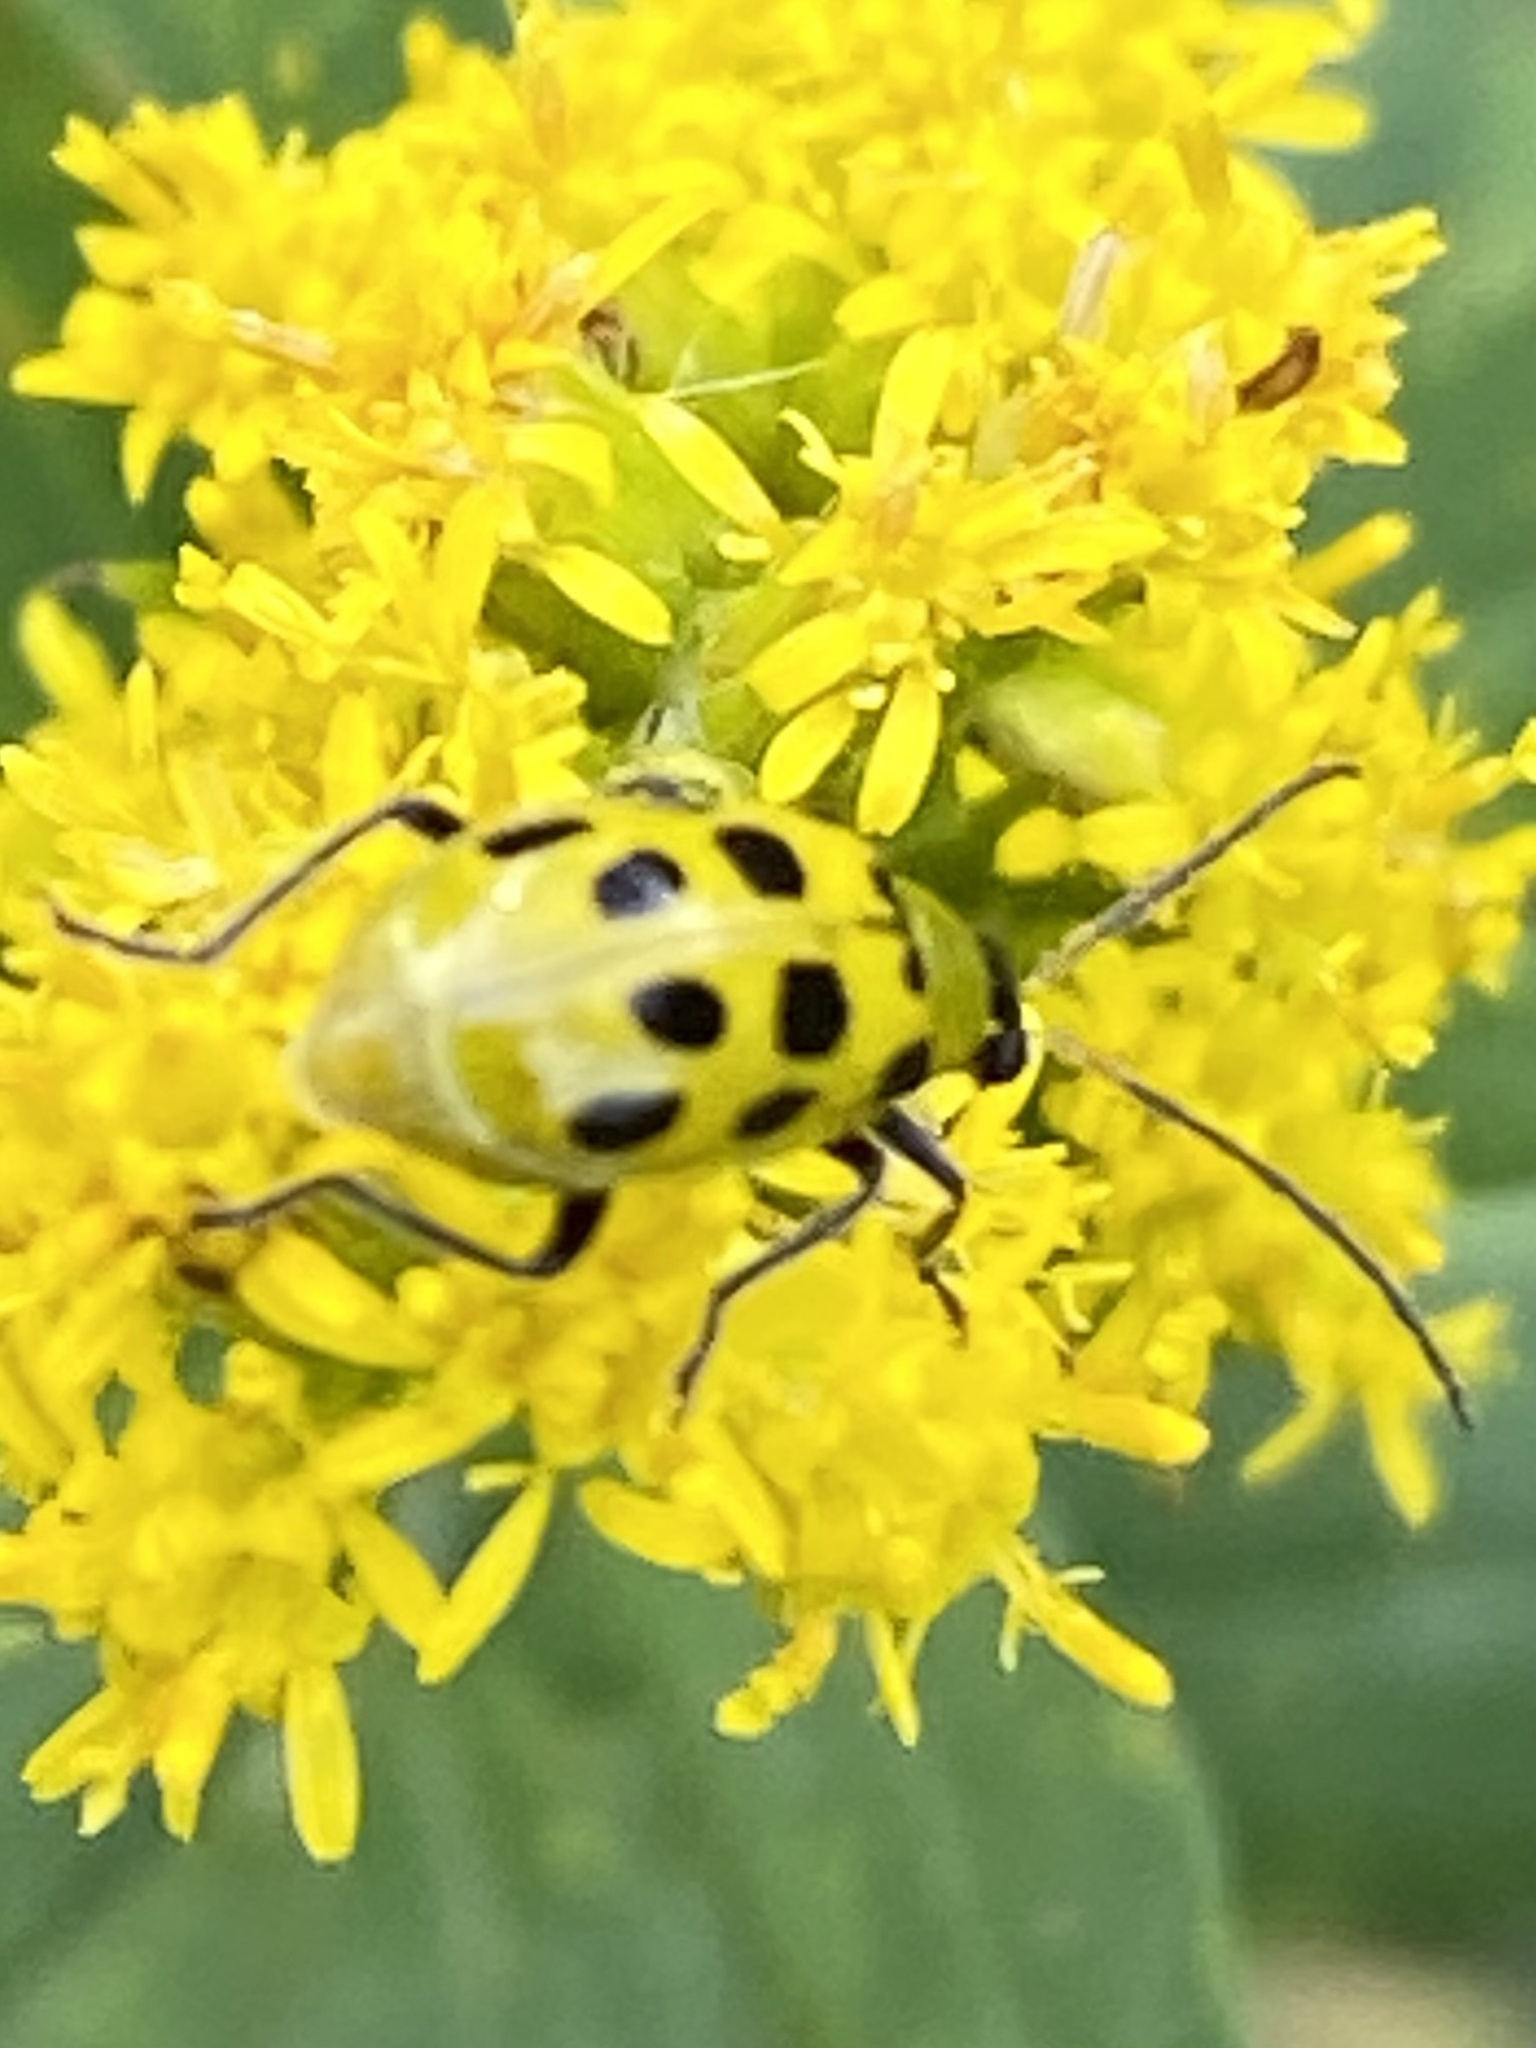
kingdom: Animalia
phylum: Arthropoda
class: Insecta
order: Coleoptera
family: Chrysomelidae
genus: Diabrotica
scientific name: Diabrotica undecimpunctata
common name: Spotted cucumber beetle
